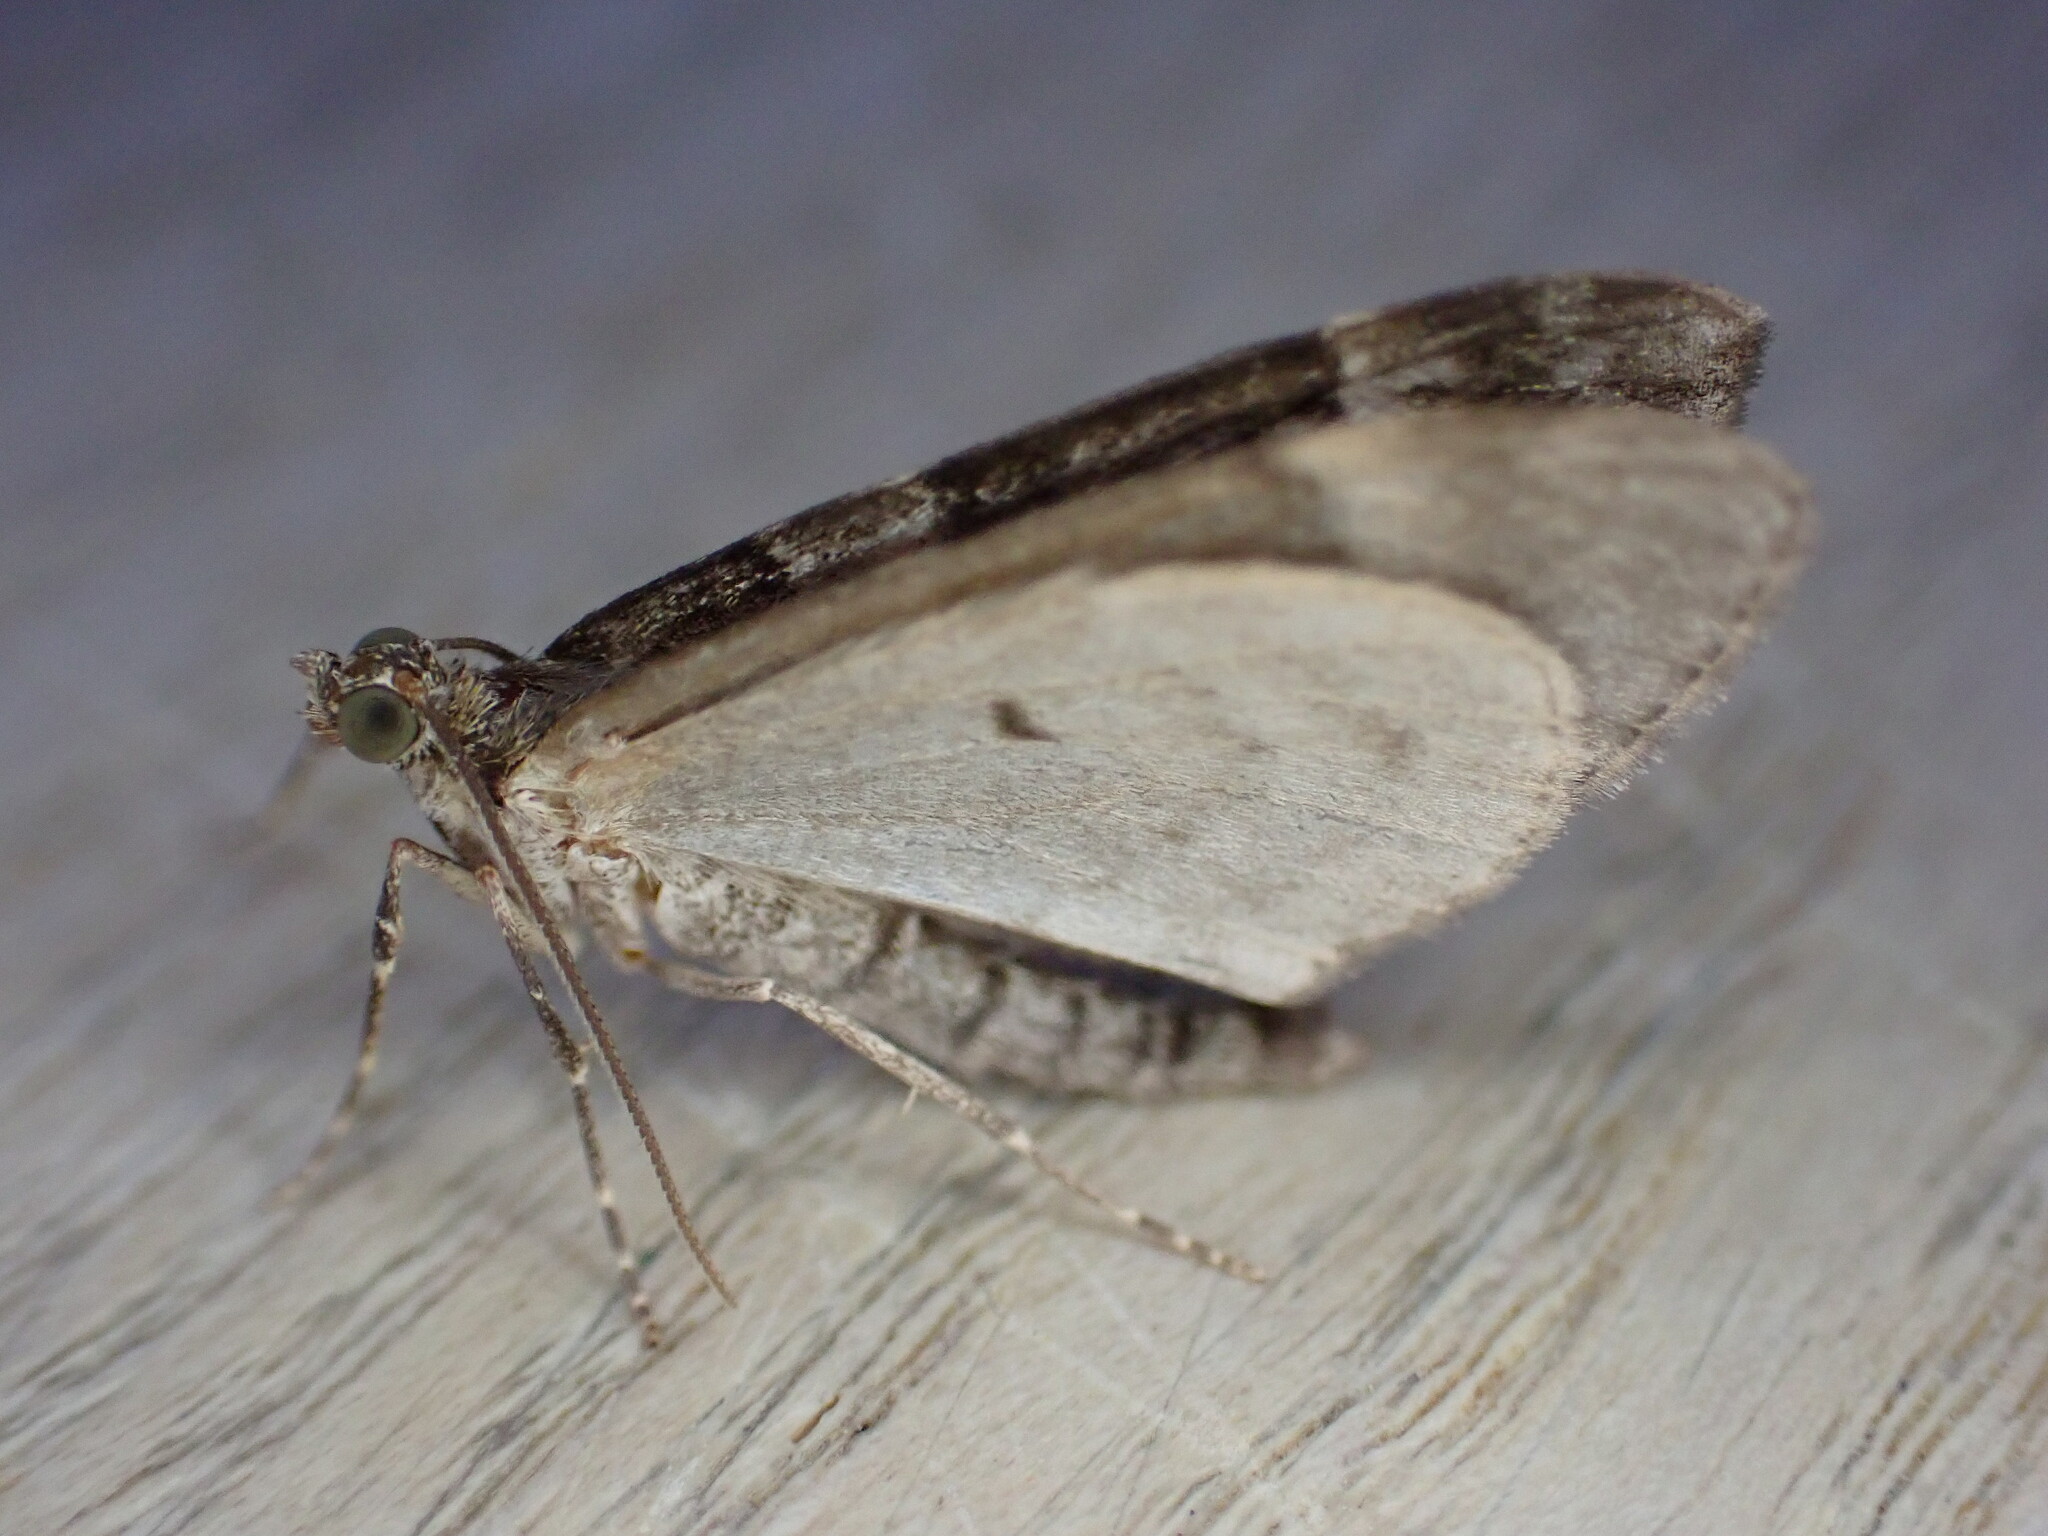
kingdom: Animalia
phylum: Arthropoda
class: Insecta
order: Lepidoptera
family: Geometridae
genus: Thera
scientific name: Thera britannica
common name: Spruce carpet
